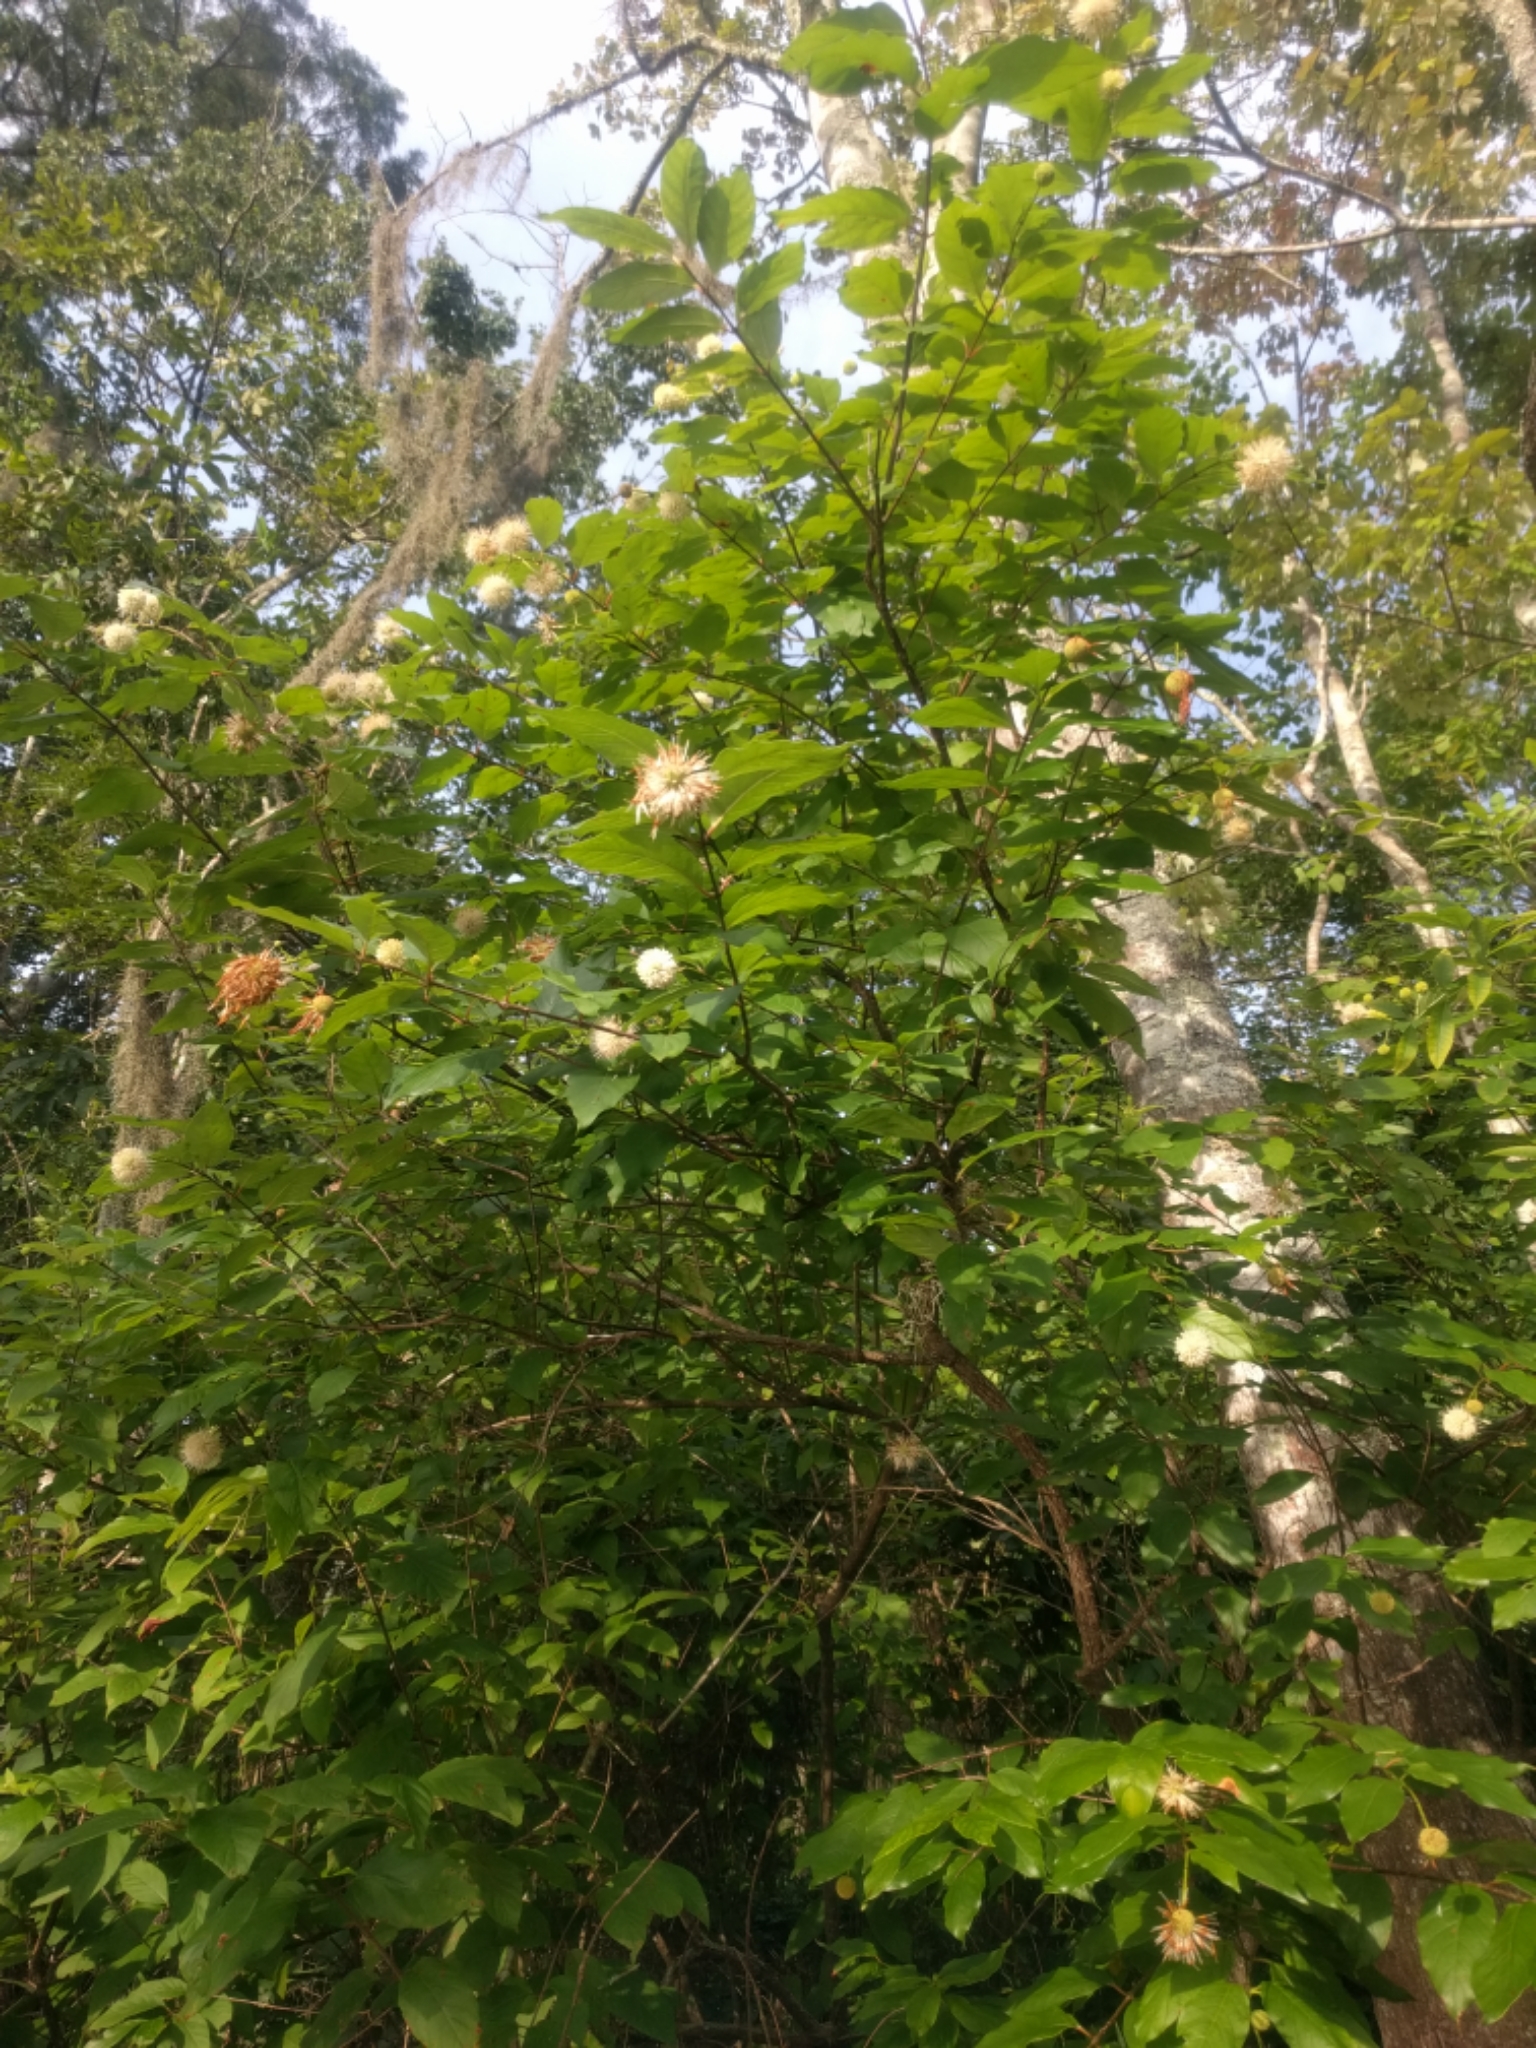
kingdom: Plantae
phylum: Tracheophyta
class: Magnoliopsida
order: Gentianales
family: Rubiaceae
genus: Cephalanthus
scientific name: Cephalanthus occidentalis
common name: Button-willow
